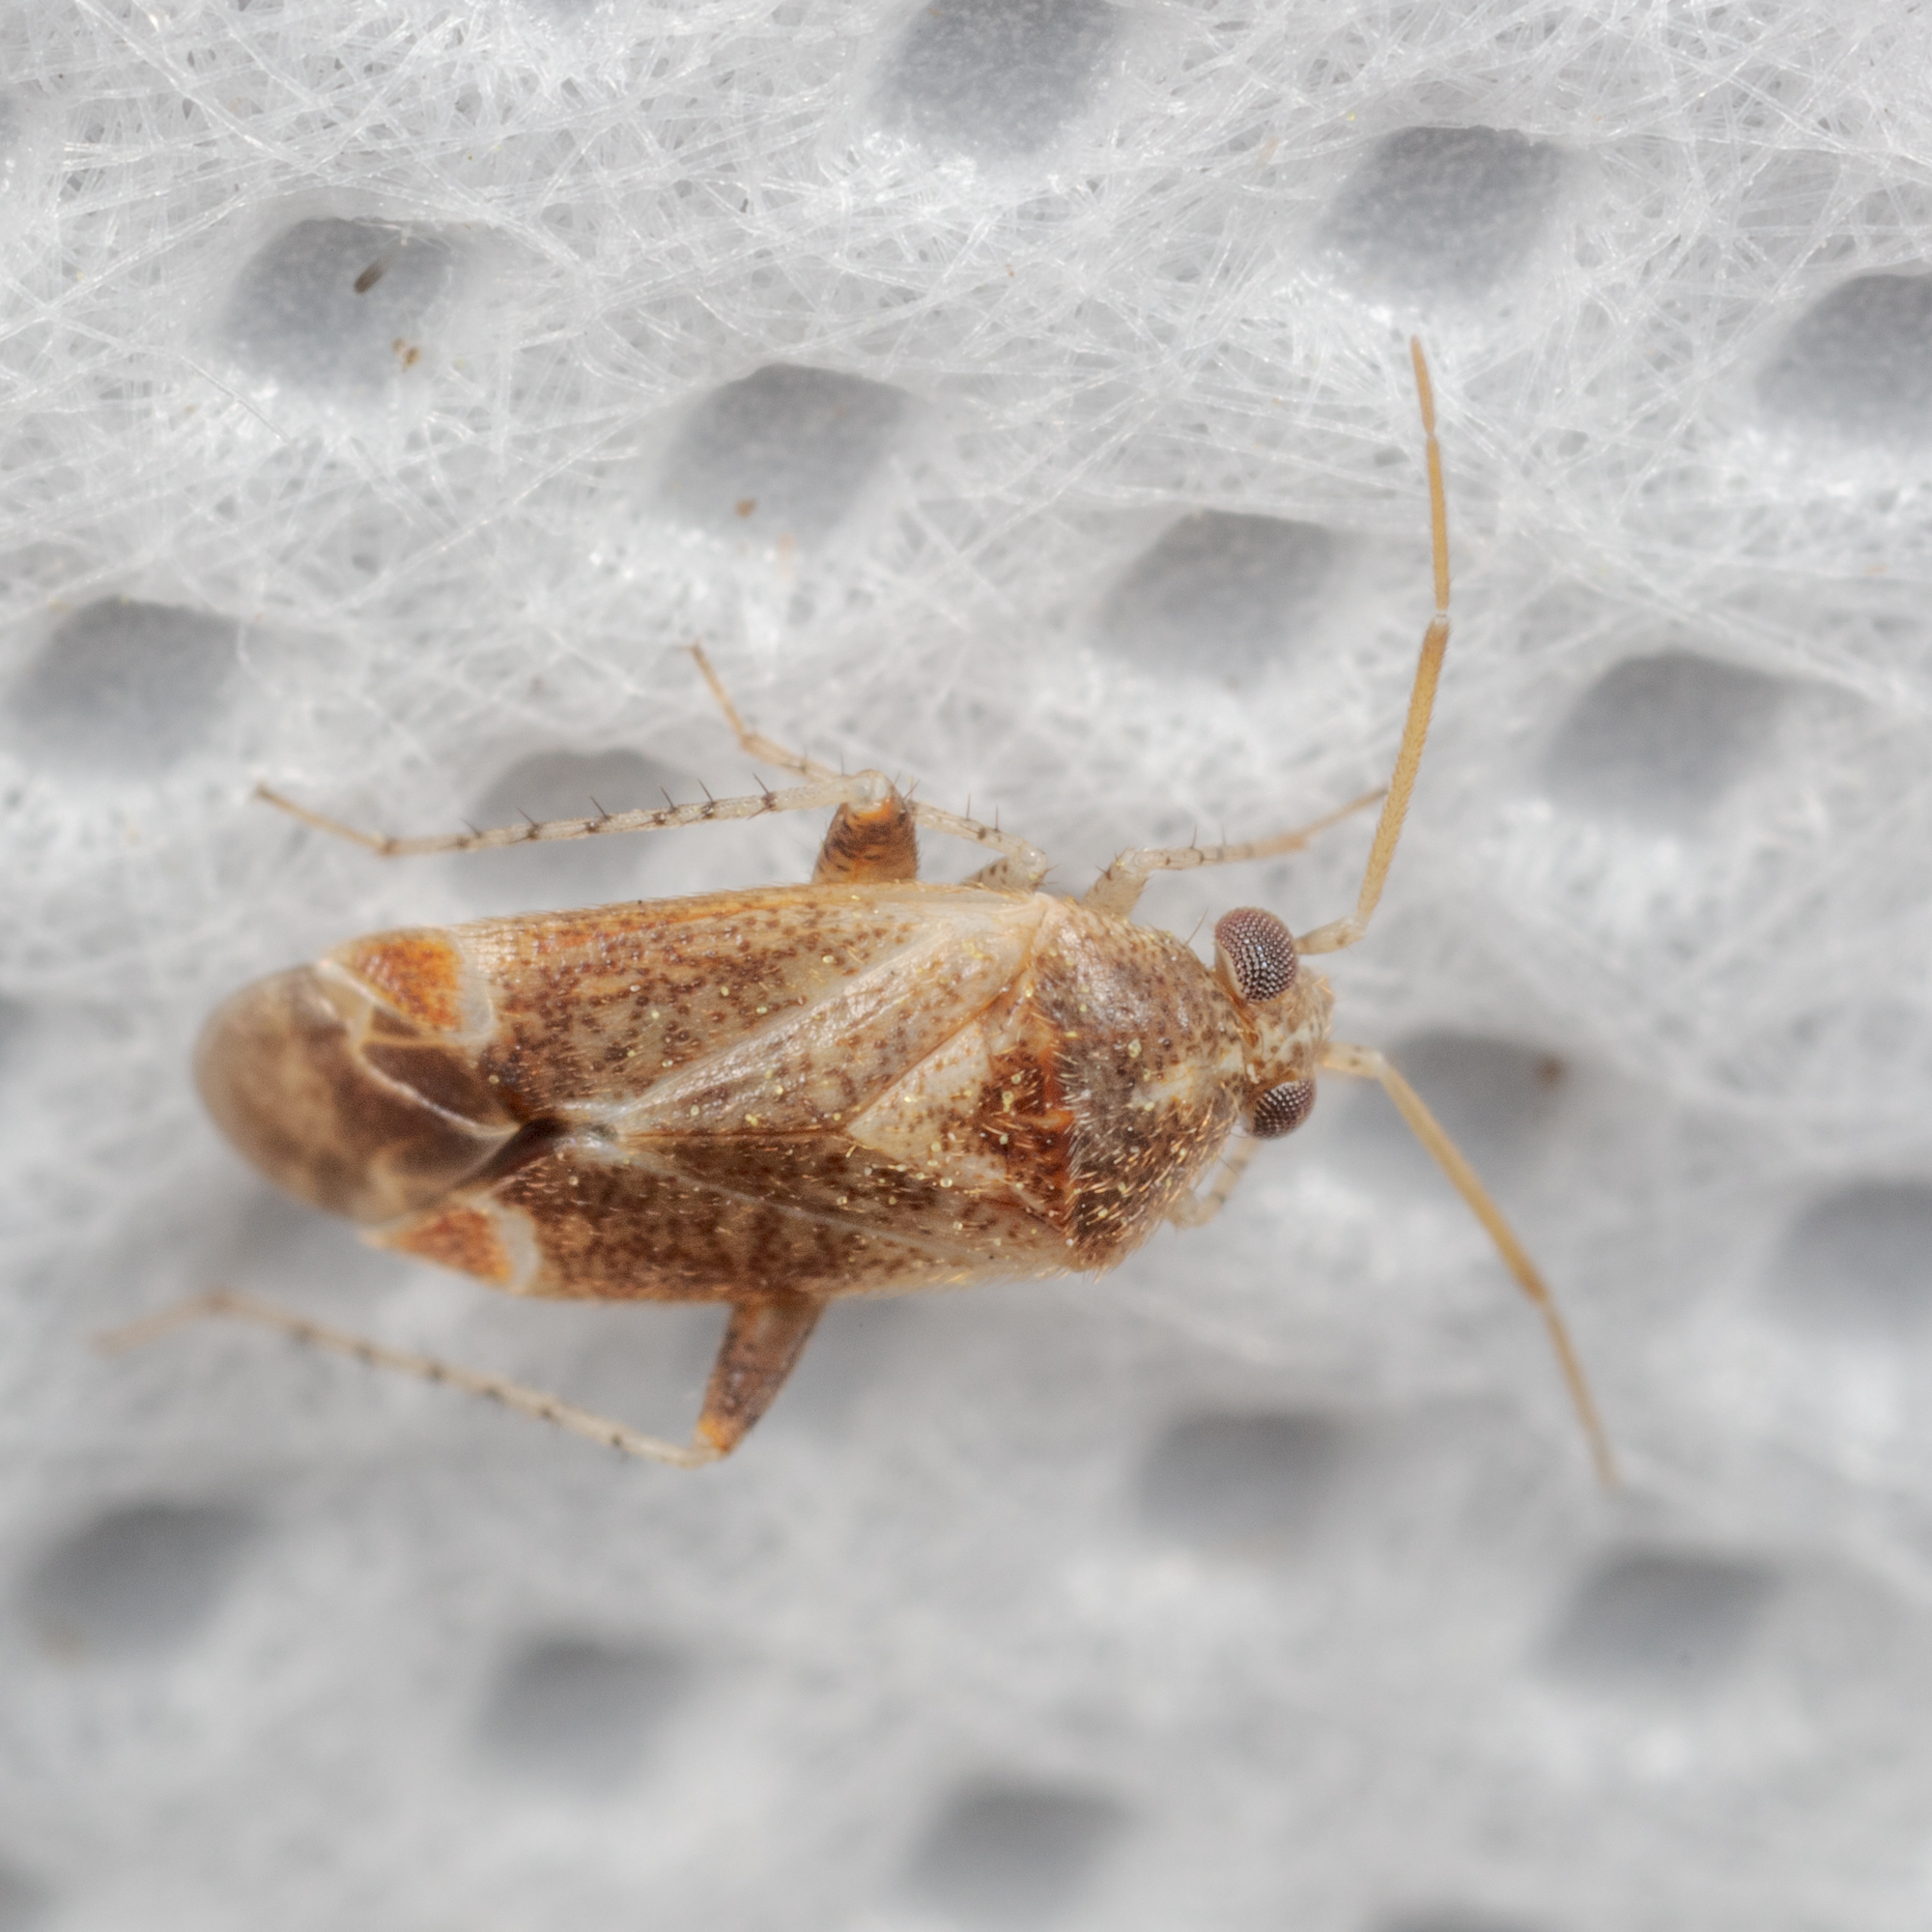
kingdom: Animalia
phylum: Arthropoda
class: Insecta
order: Hemiptera
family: Miridae
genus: Hamatophylus
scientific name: Hamatophylus guttulosus
